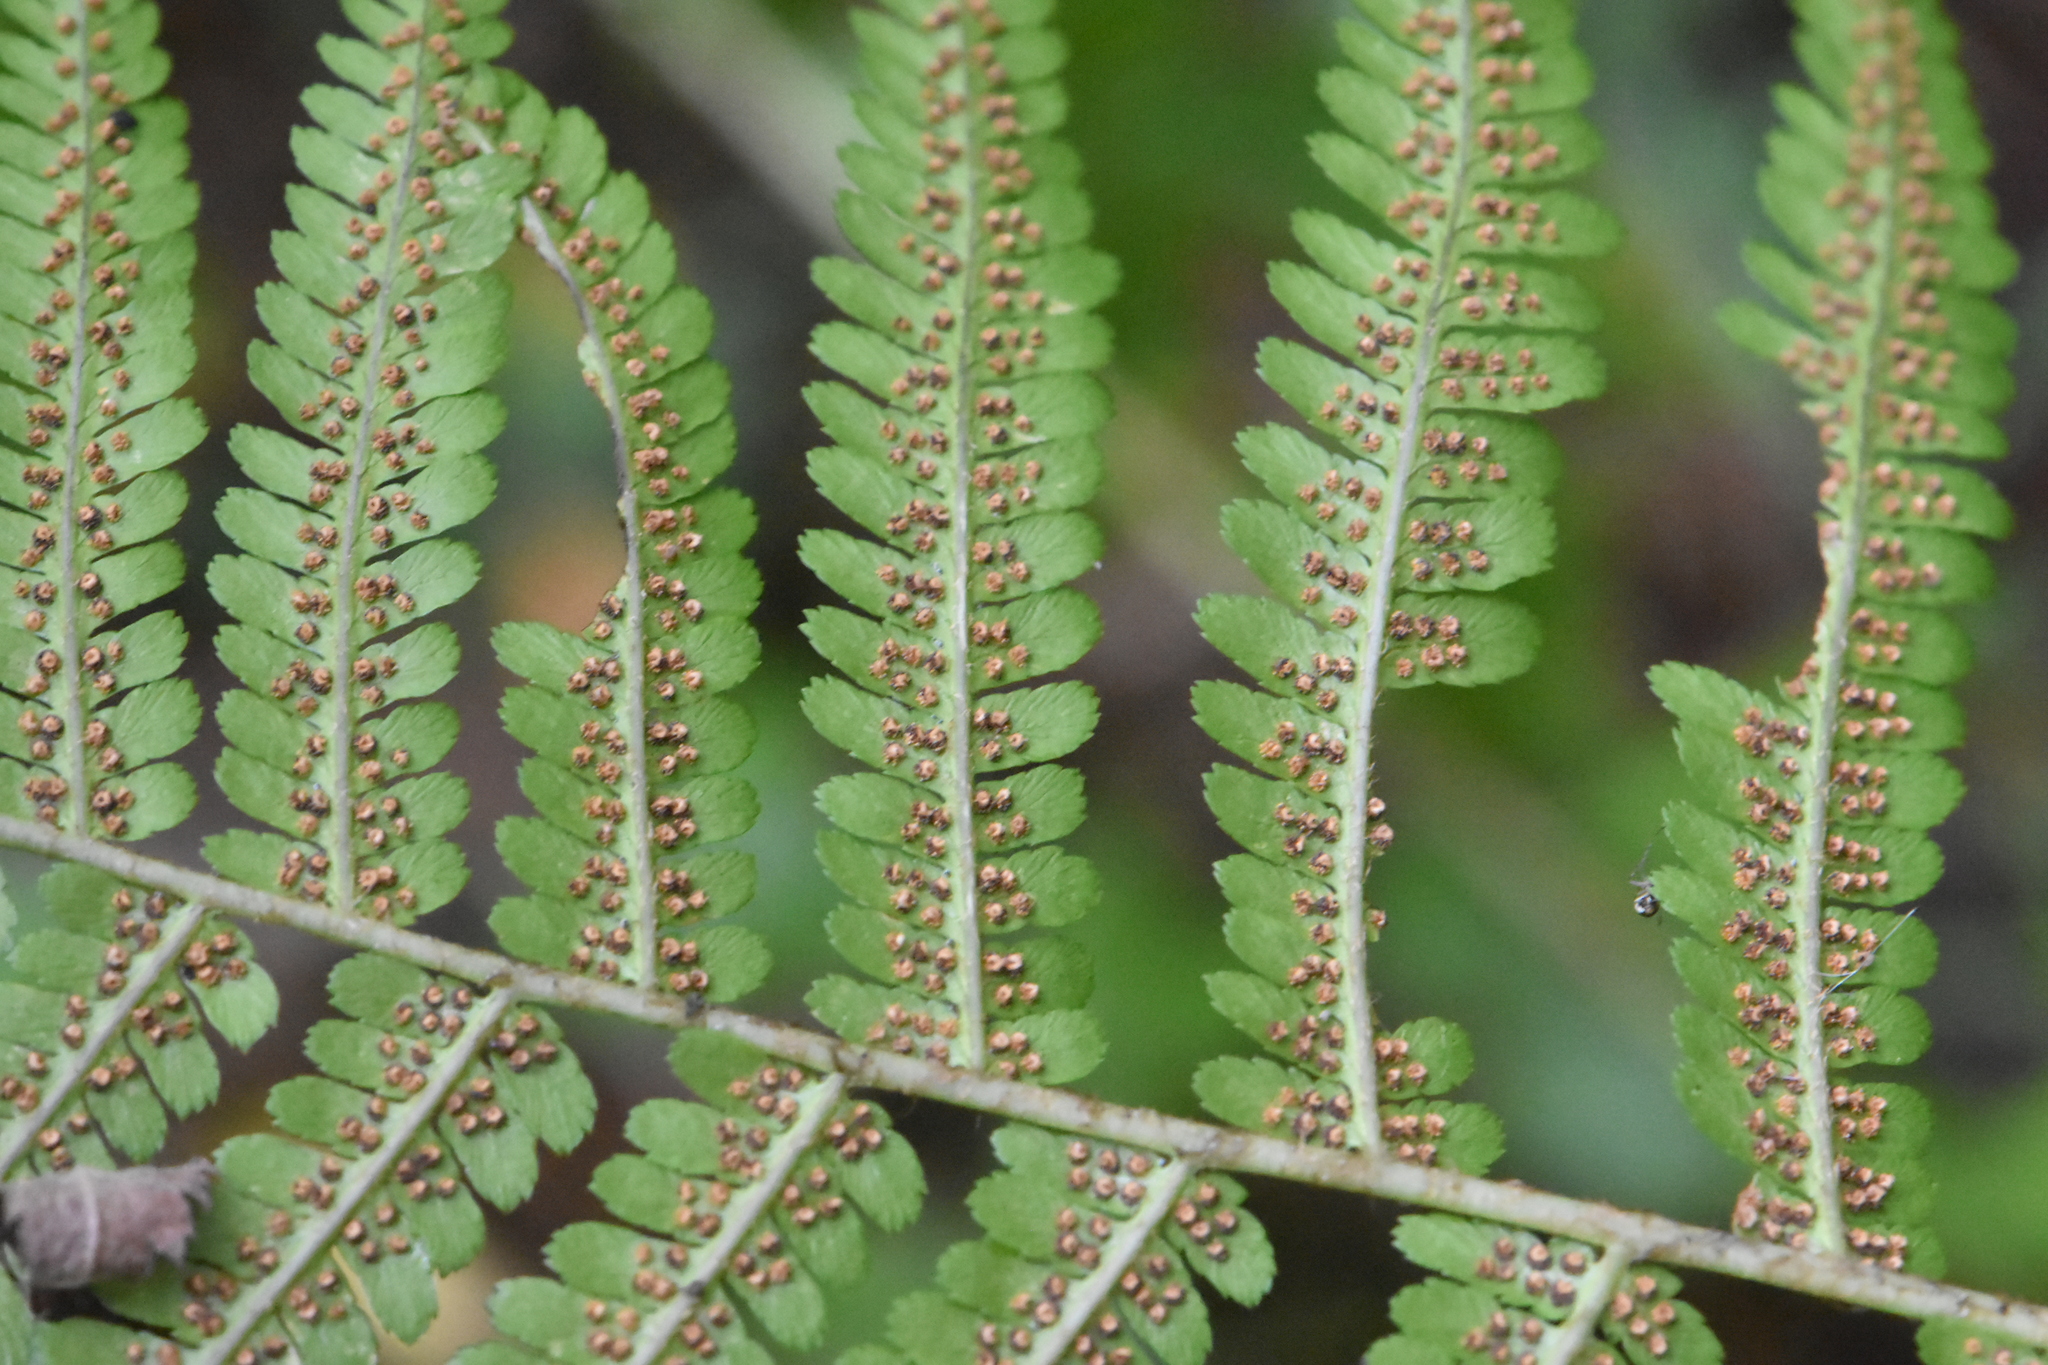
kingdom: Plantae
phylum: Tracheophyta
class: Polypodiopsida
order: Polypodiales
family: Dryopteridaceae
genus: Dryopteris
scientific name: Dryopteris filix-mas
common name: Male fern
